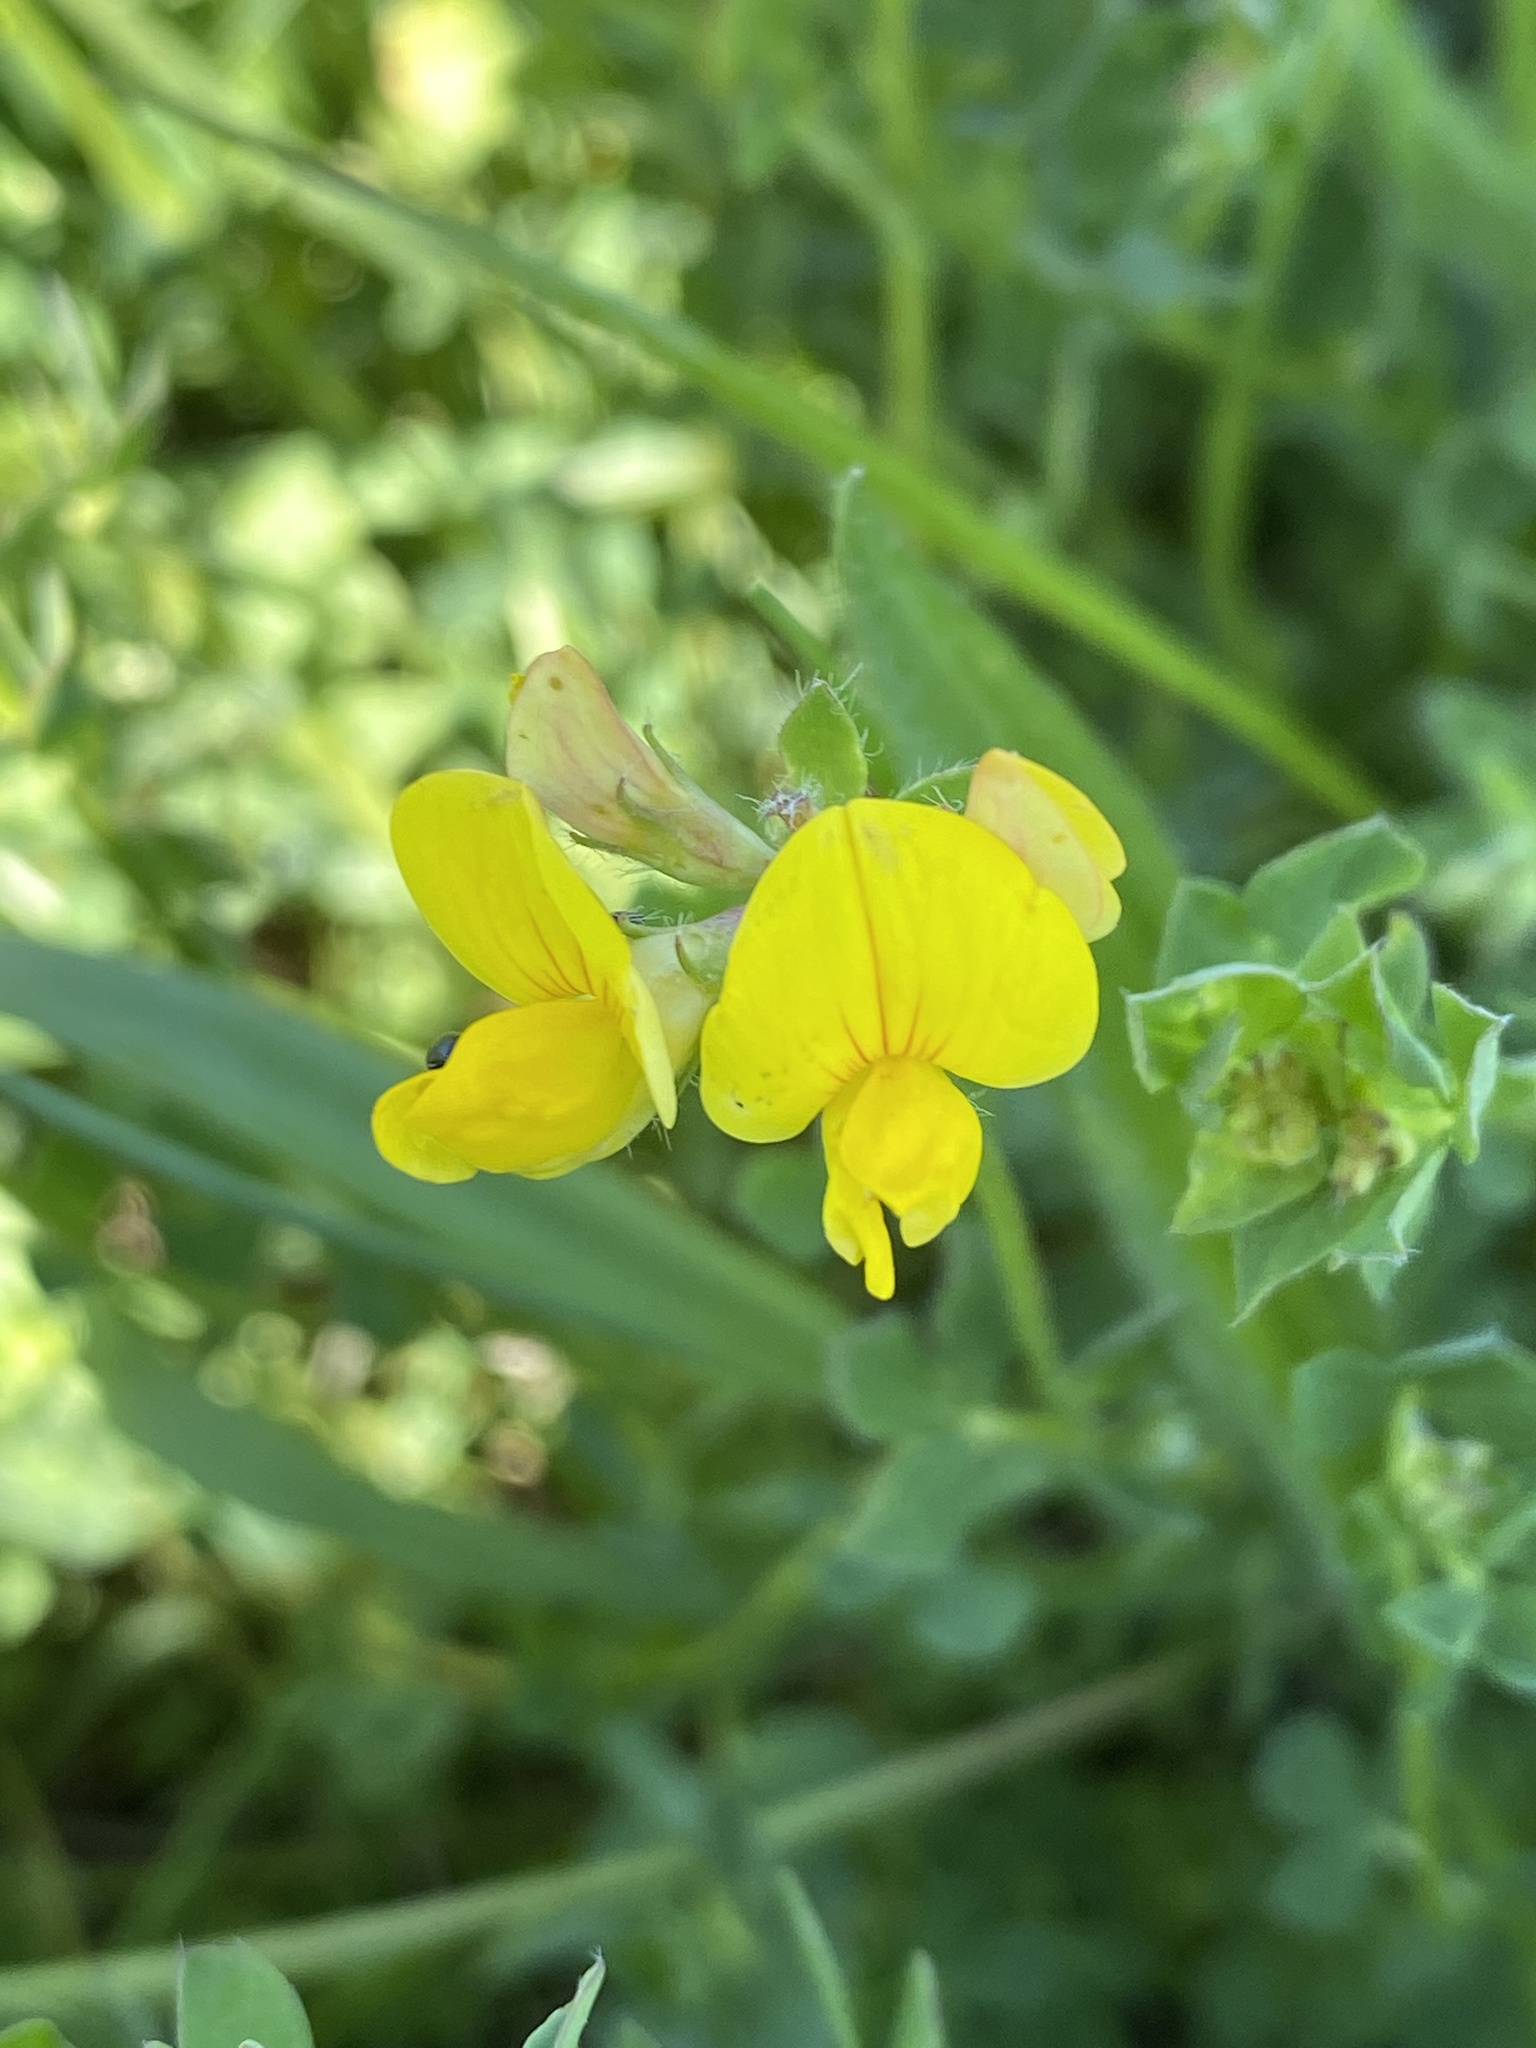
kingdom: Plantae
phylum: Tracheophyta
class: Magnoliopsida
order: Fabales
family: Fabaceae
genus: Lotus
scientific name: Lotus corniculatus
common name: Common bird's-foot-trefoil
